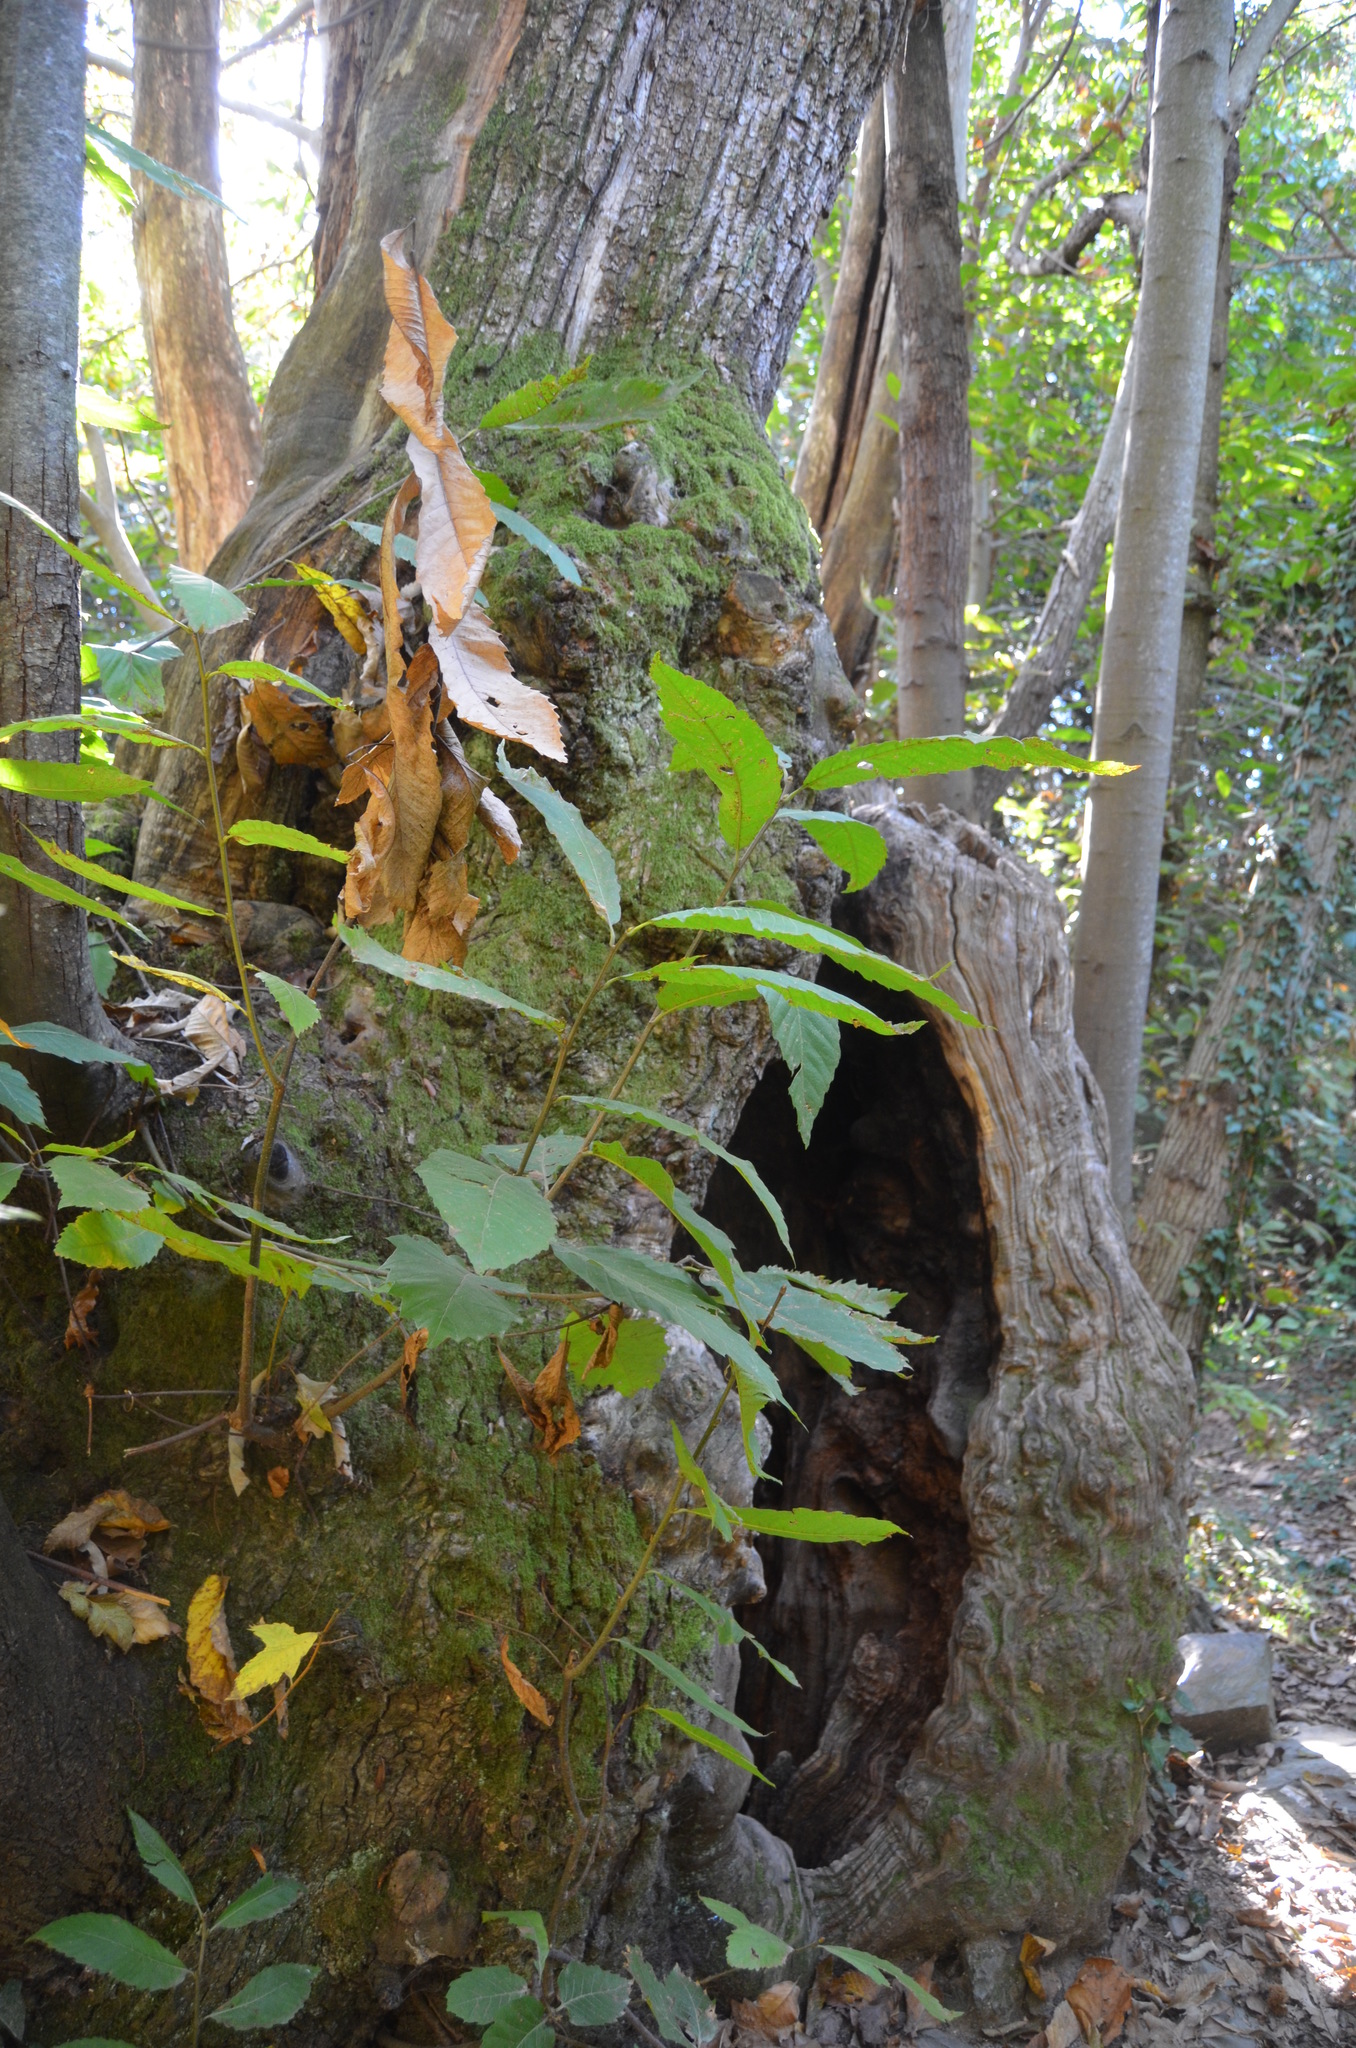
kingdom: Plantae
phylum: Tracheophyta
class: Magnoliopsida
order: Fagales
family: Fagaceae
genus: Castanea
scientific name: Castanea sativa
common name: Sweet chestnut
